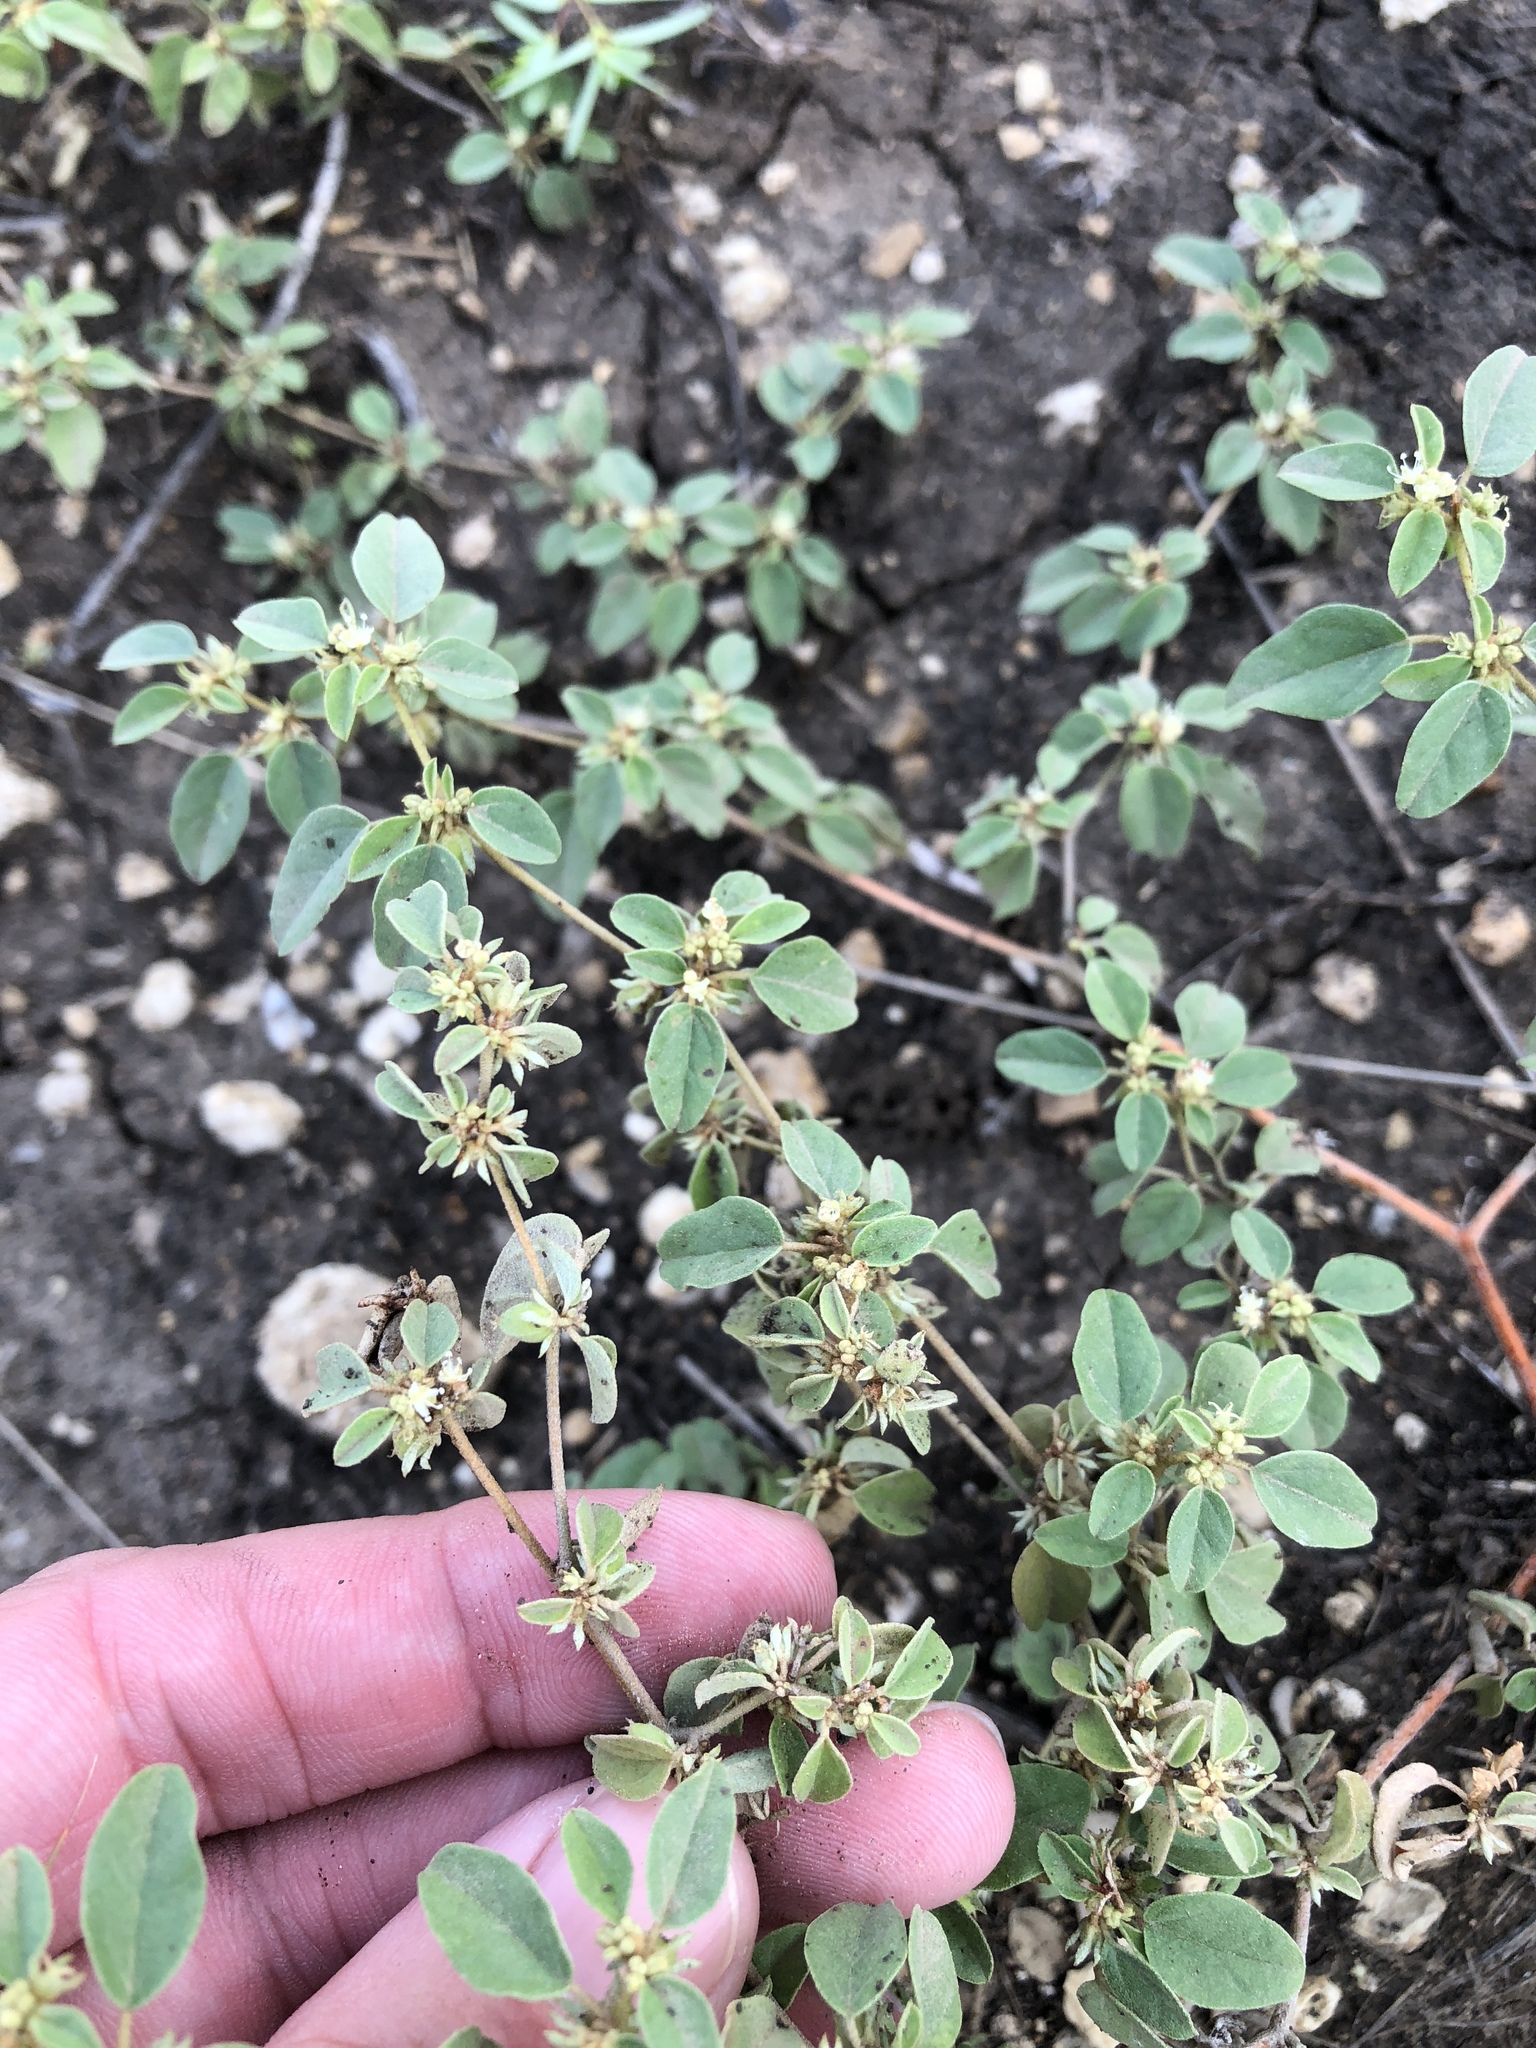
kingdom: Plantae
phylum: Tracheophyta
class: Magnoliopsida
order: Malpighiales
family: Euphorbiaceae
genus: Croton
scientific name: Croton monanthogynus
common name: One-seed croton
